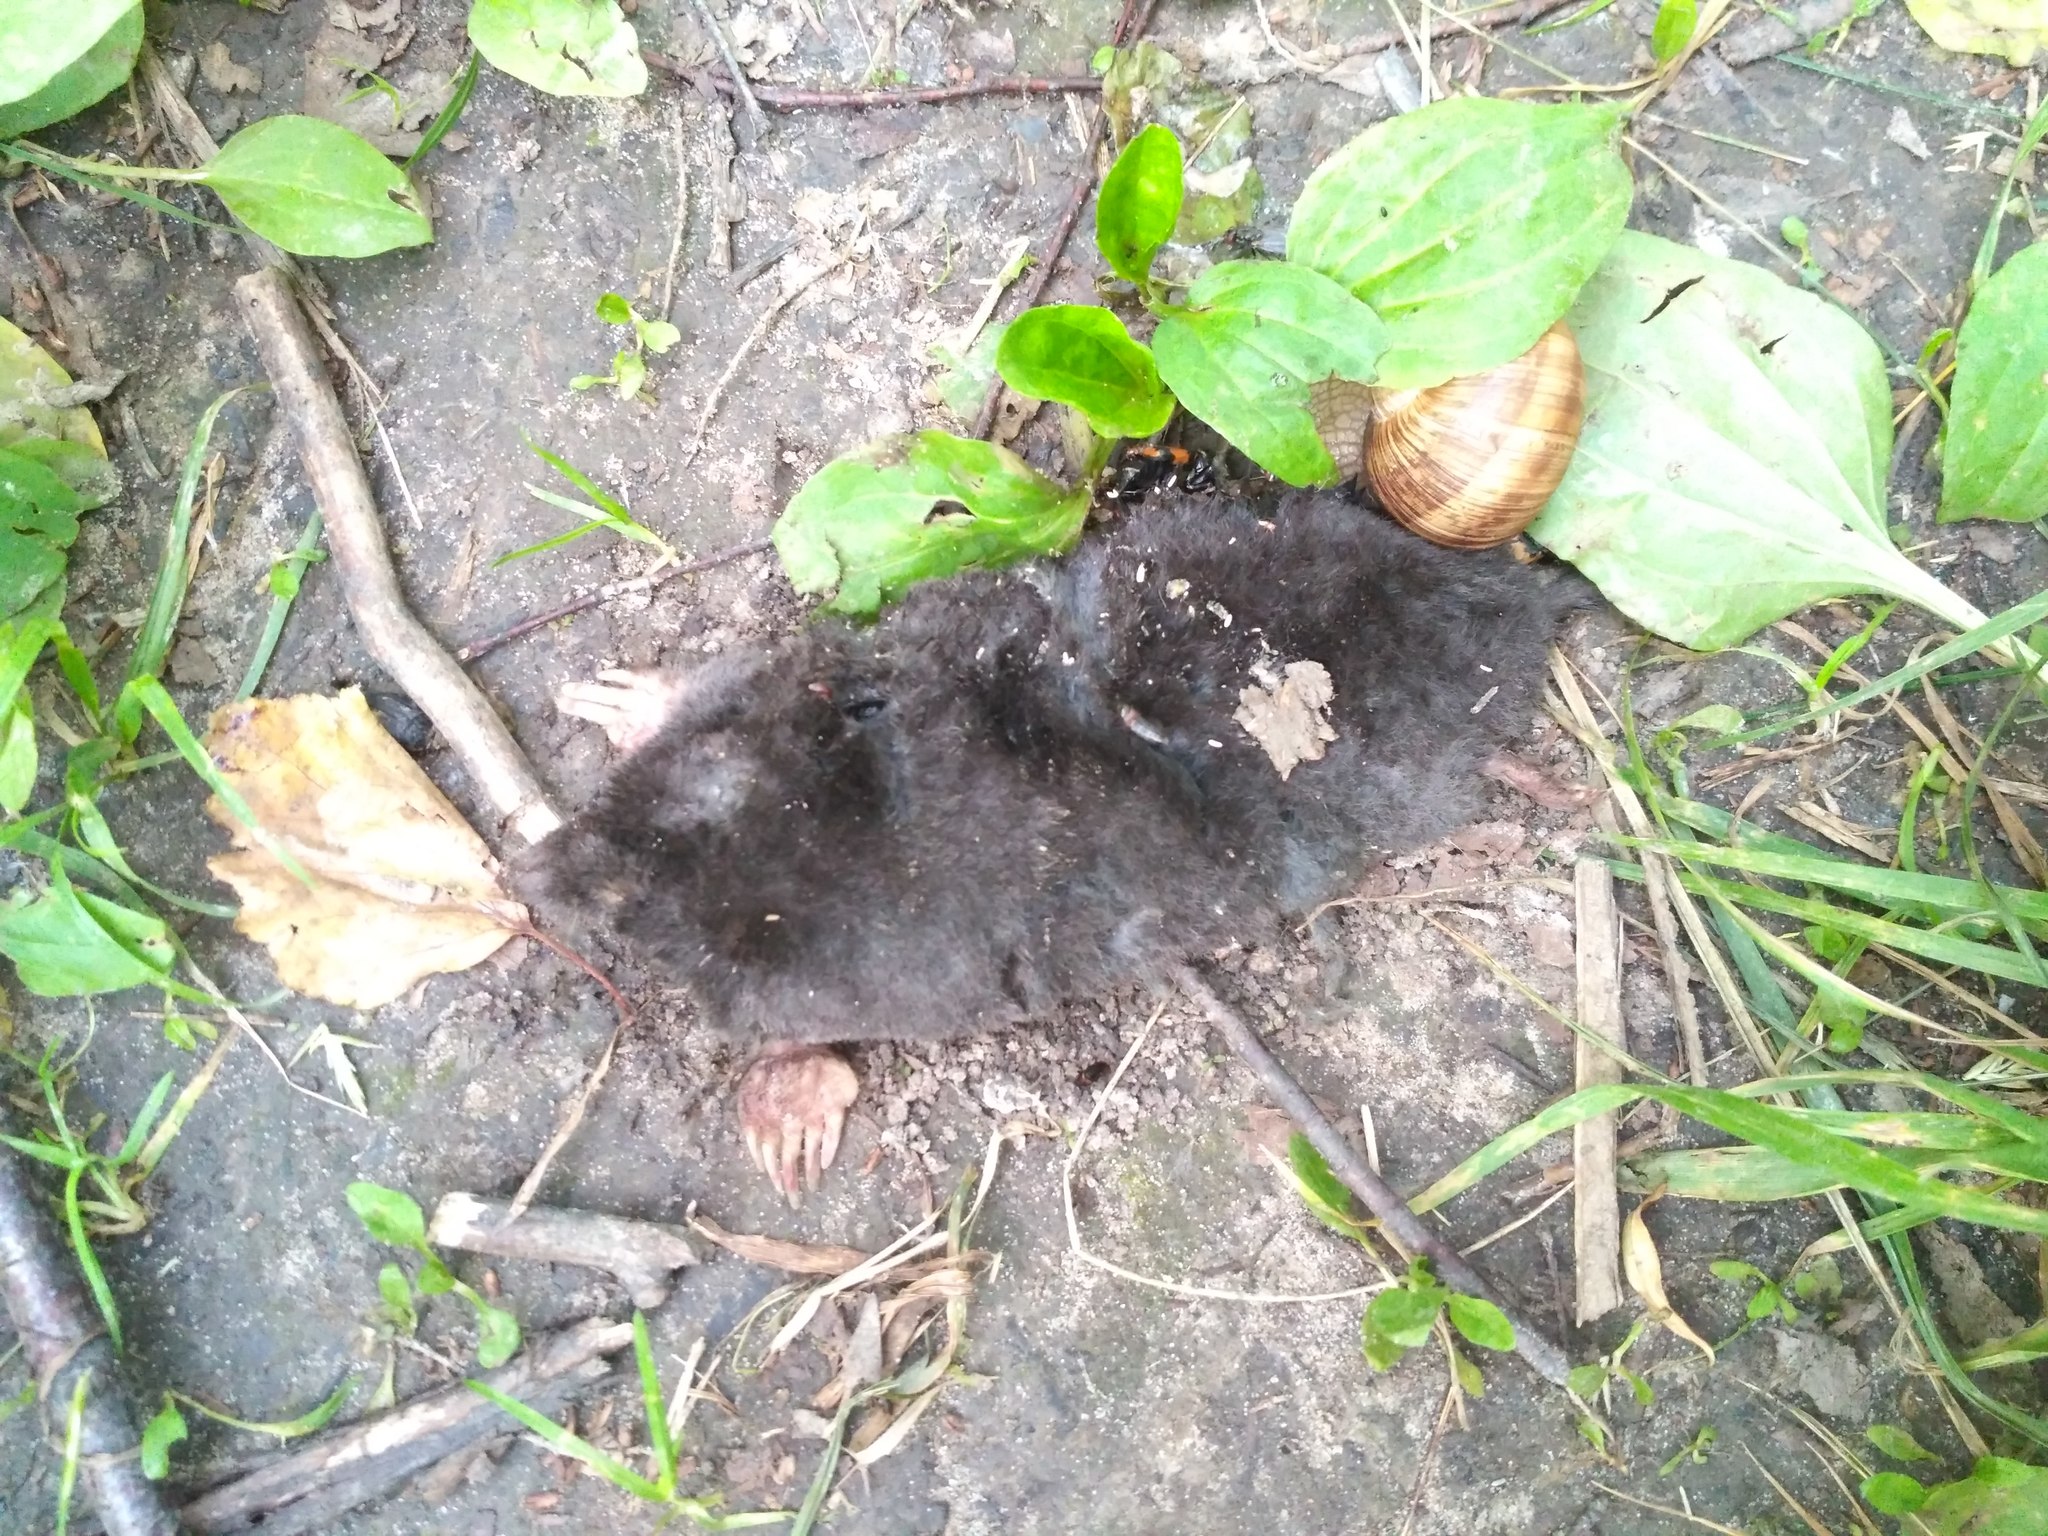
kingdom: Animalia
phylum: Chordata
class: Mammalia
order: Soricomorpha
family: Talpidae
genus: Talpa
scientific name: Talpa europaea
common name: European mole
